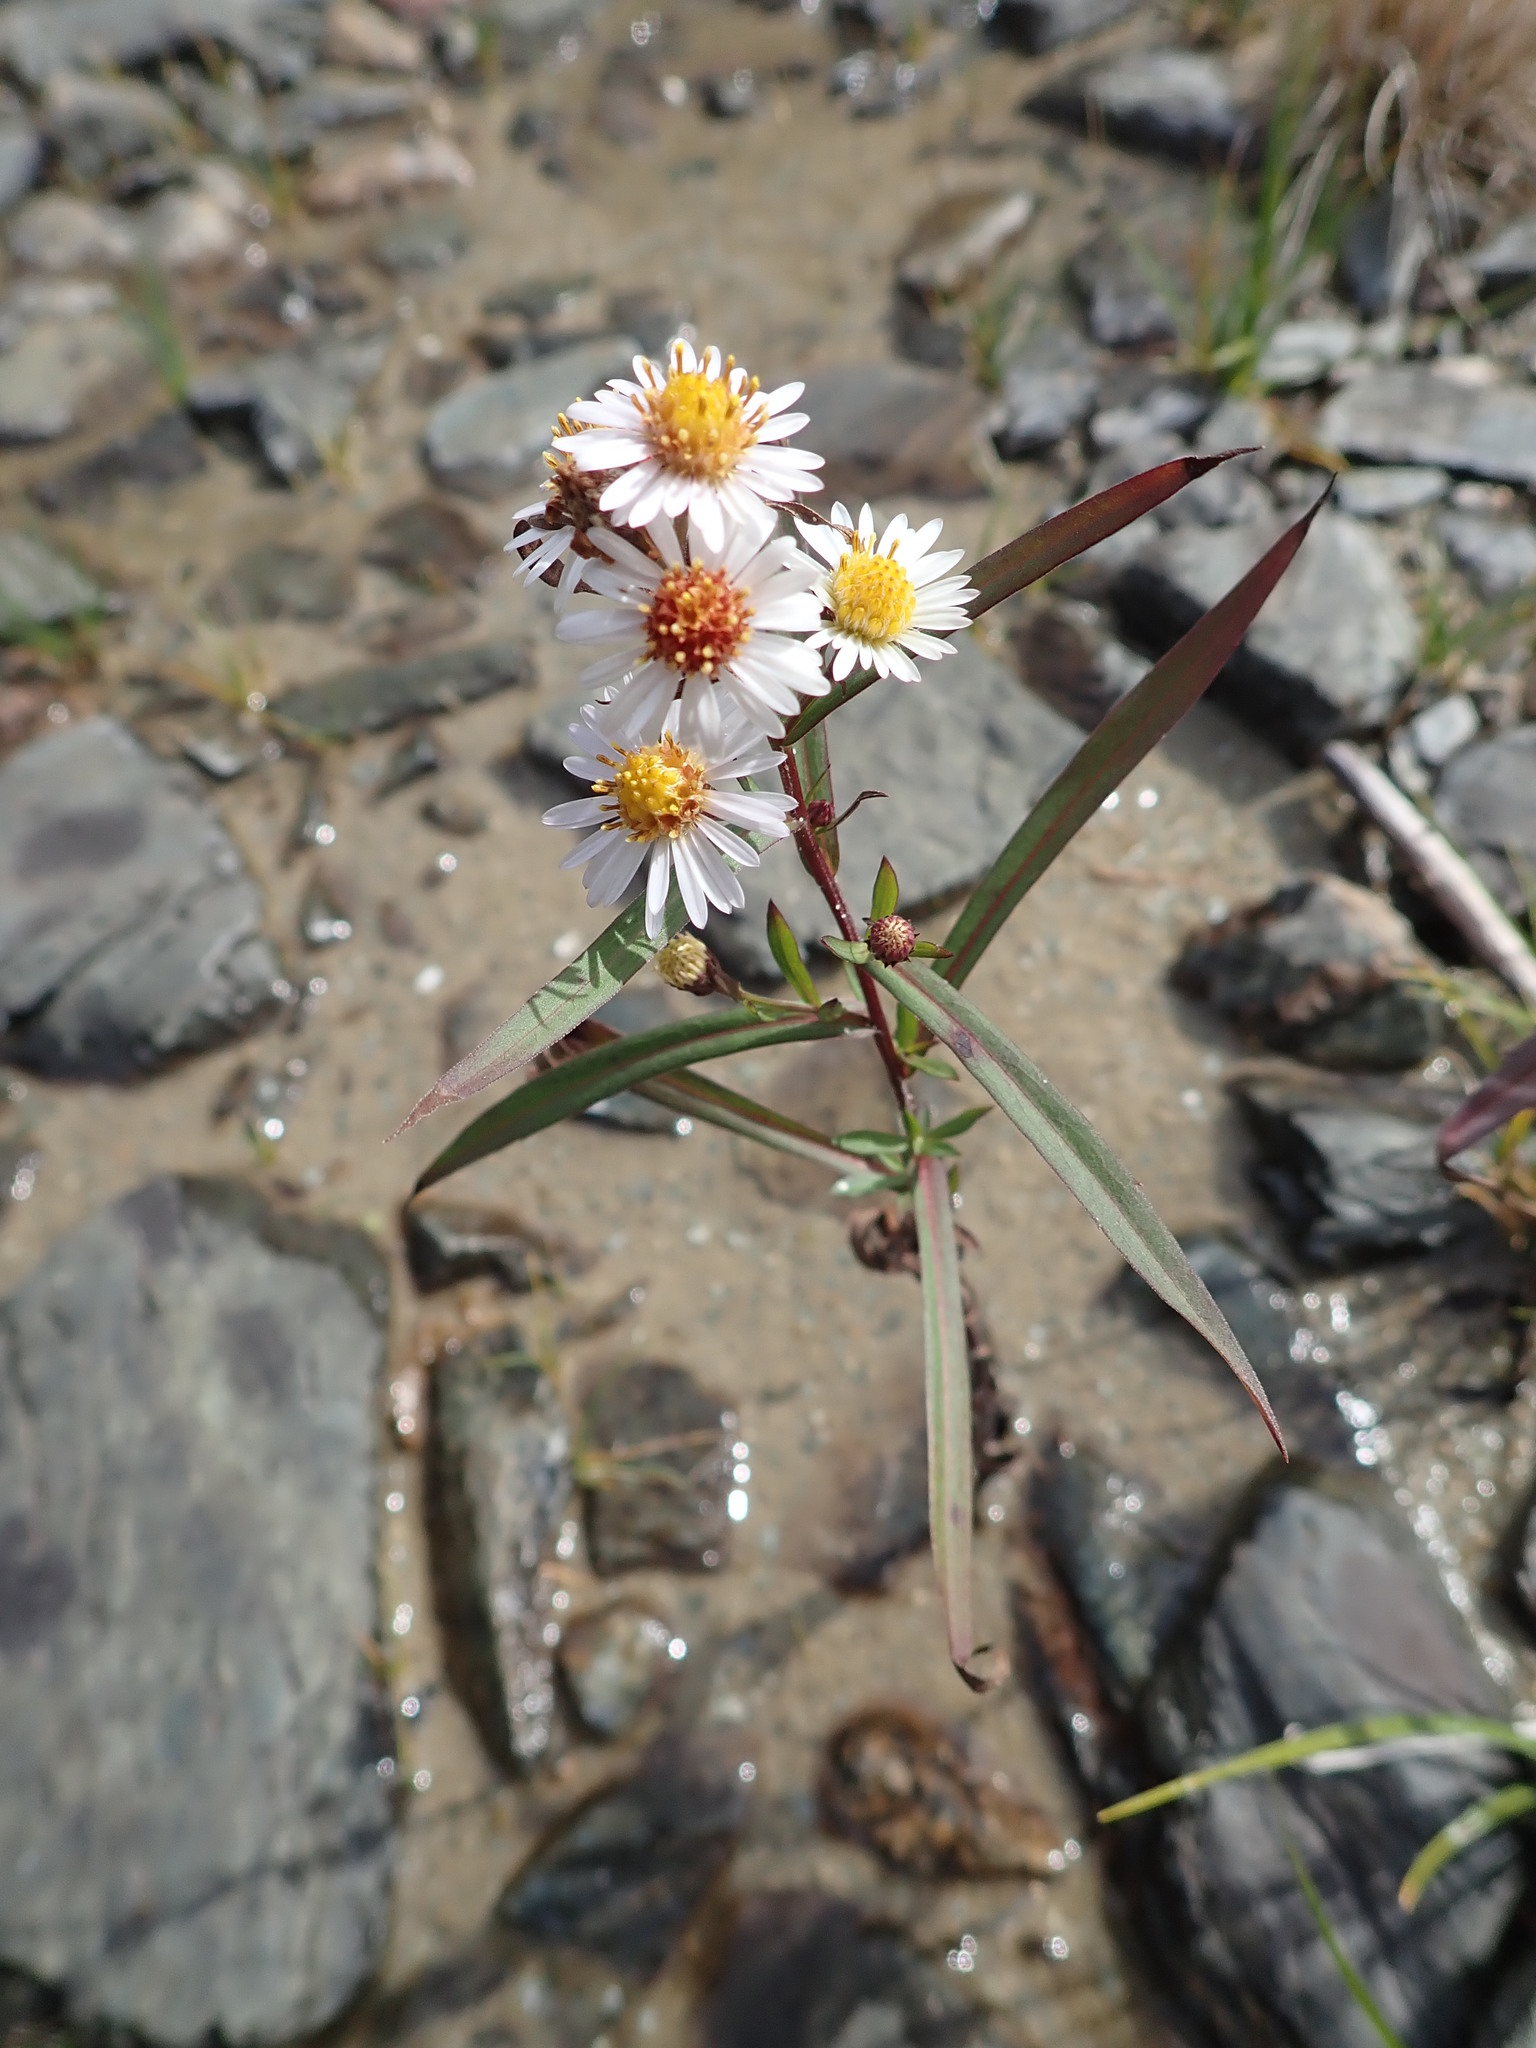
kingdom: Plantae
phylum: Tracheophyta
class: Magnoliopsida
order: Asterales
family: Asteraceae
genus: Symphyotrichum
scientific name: Symphyotrichum lanceolatum
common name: Panicled aster
